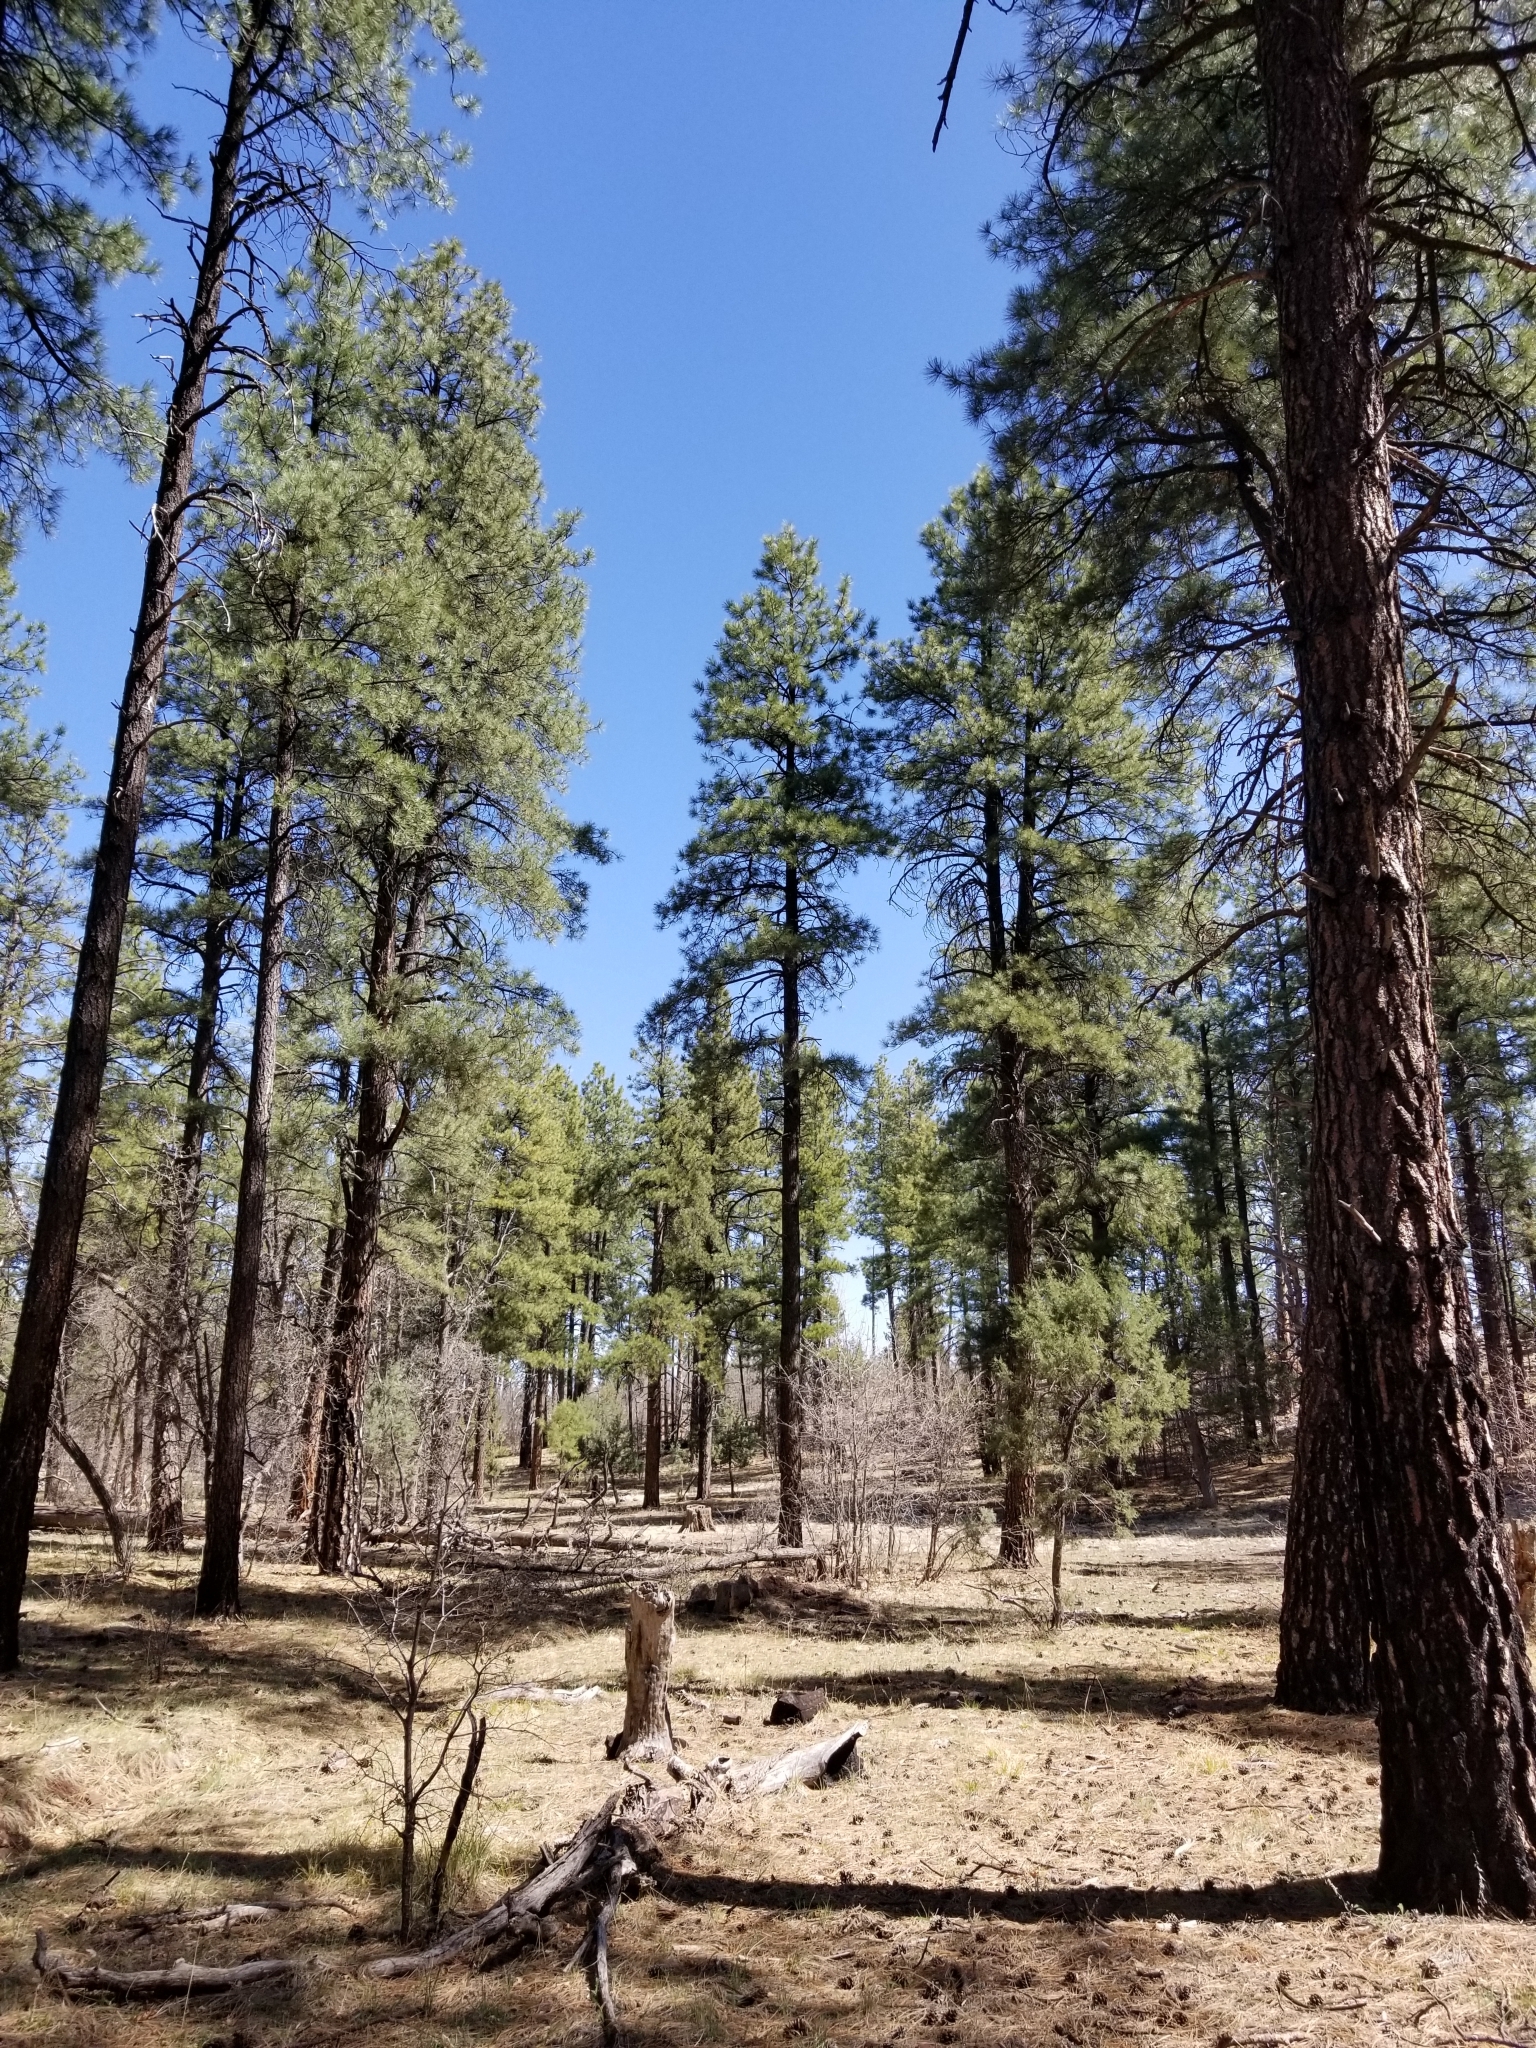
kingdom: Plantae
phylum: Tracheophyta
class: Pinopsida
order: Pinales
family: Pinaceae
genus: Pinus
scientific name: Pinus ponderosa
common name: Western yellow-pine
